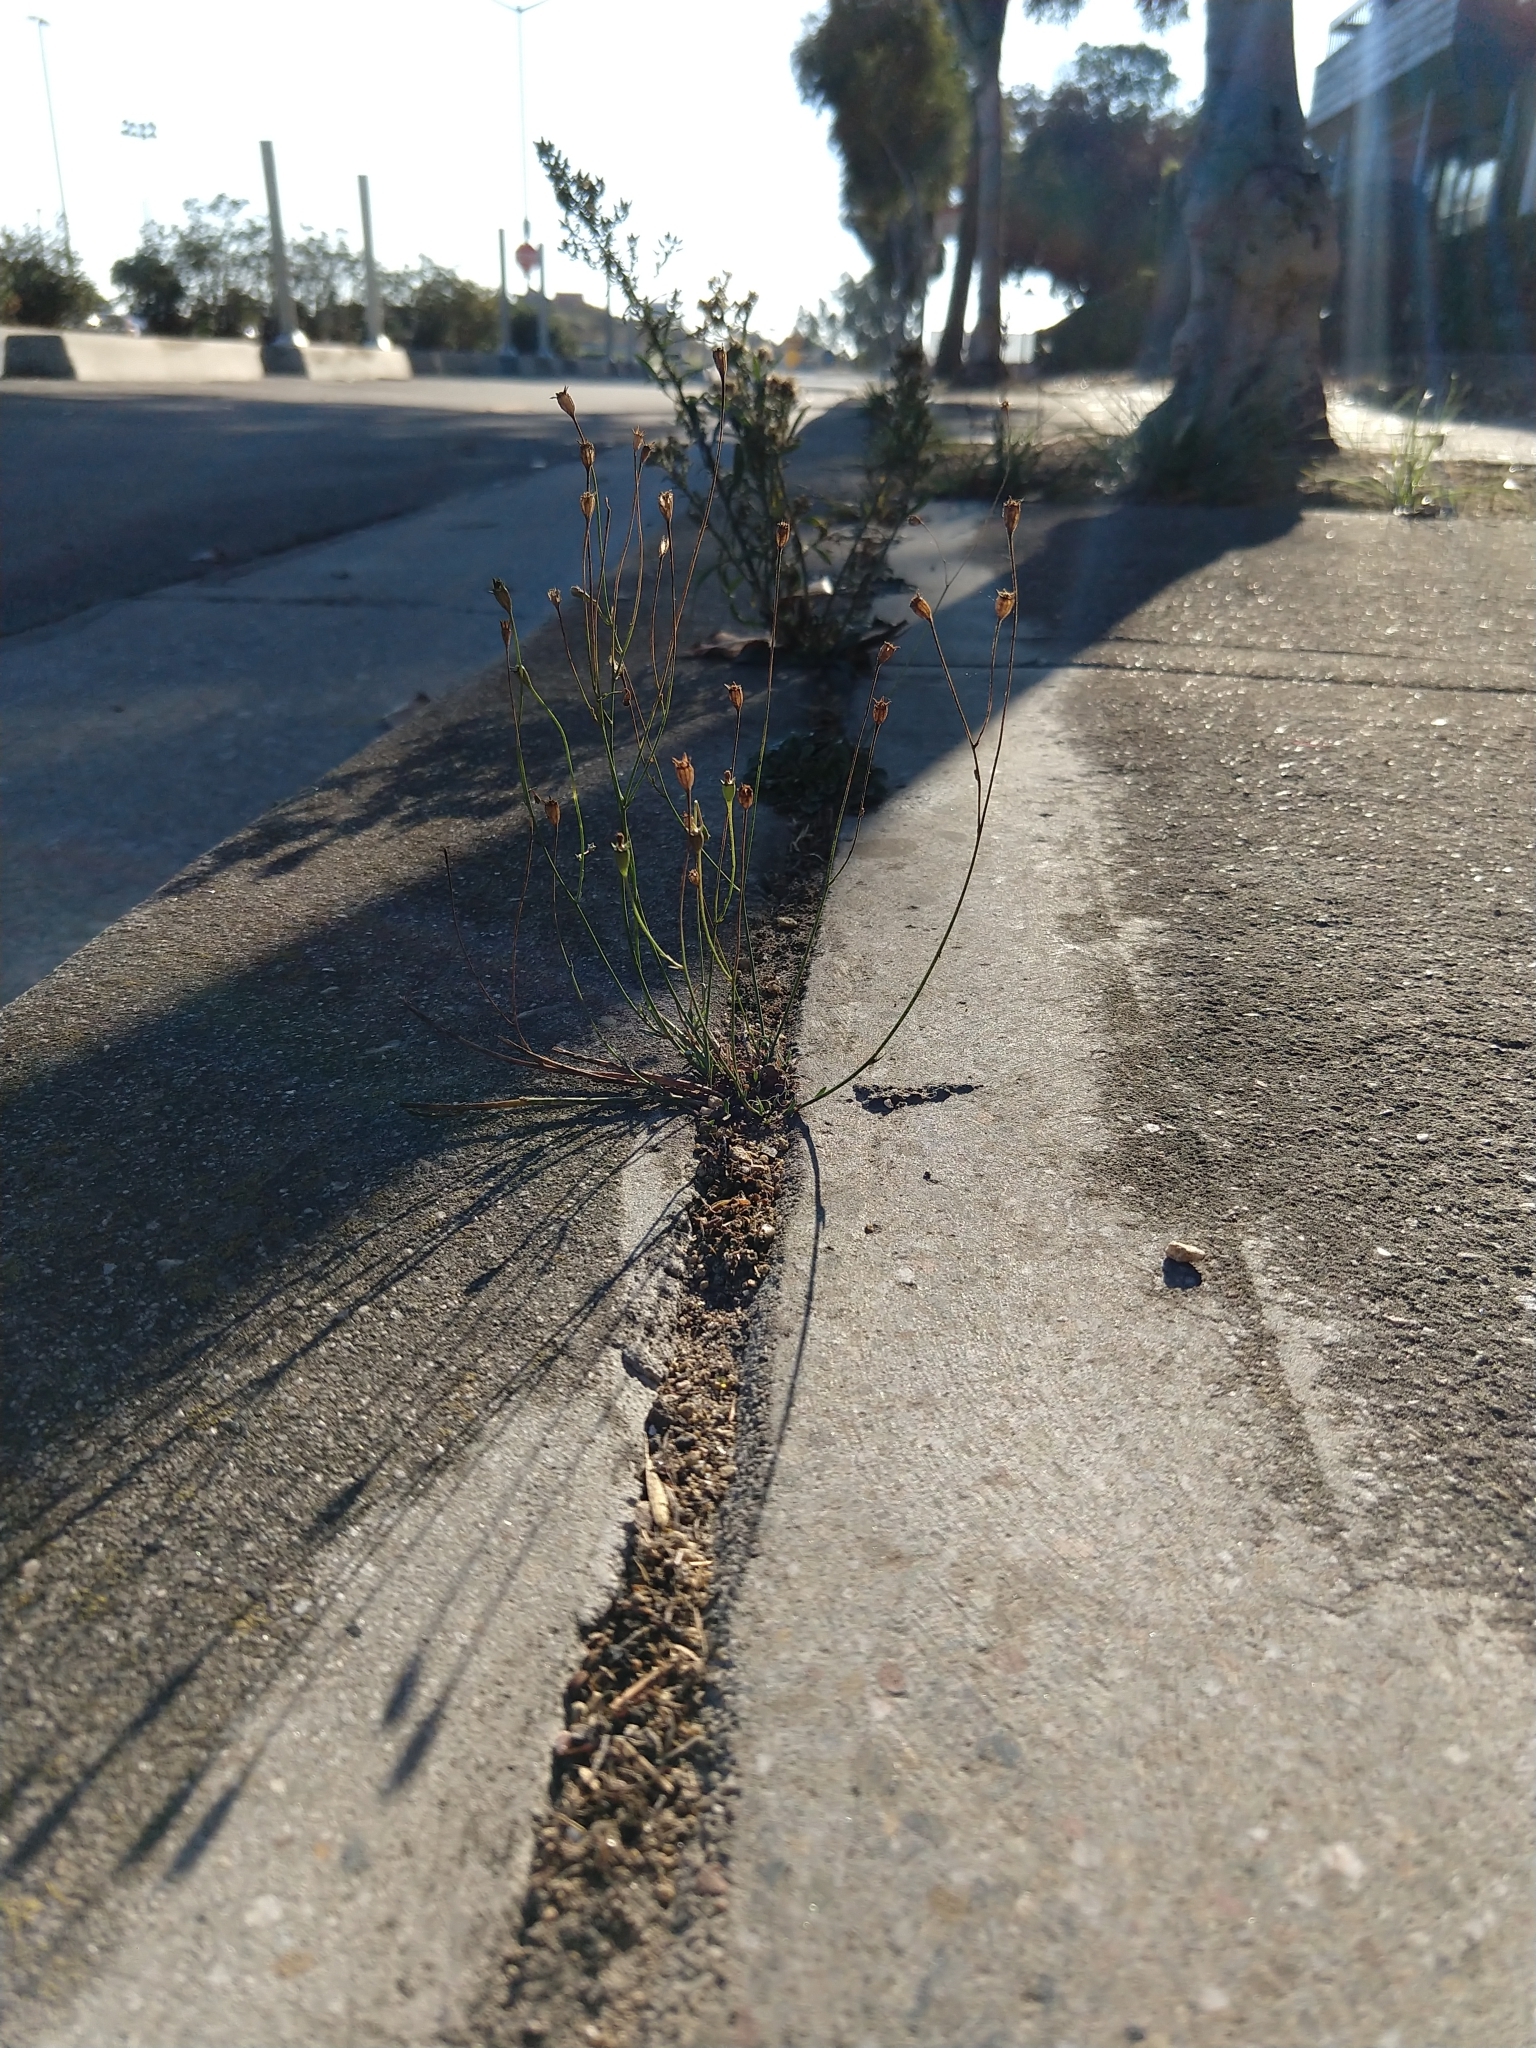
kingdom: Plantae
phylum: Tracheophyta
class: Magnoliopsida
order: Asterales
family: Campanulaceae
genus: Wahlenbergia
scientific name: Wahlenbergia marginata
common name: Southern rockbell
